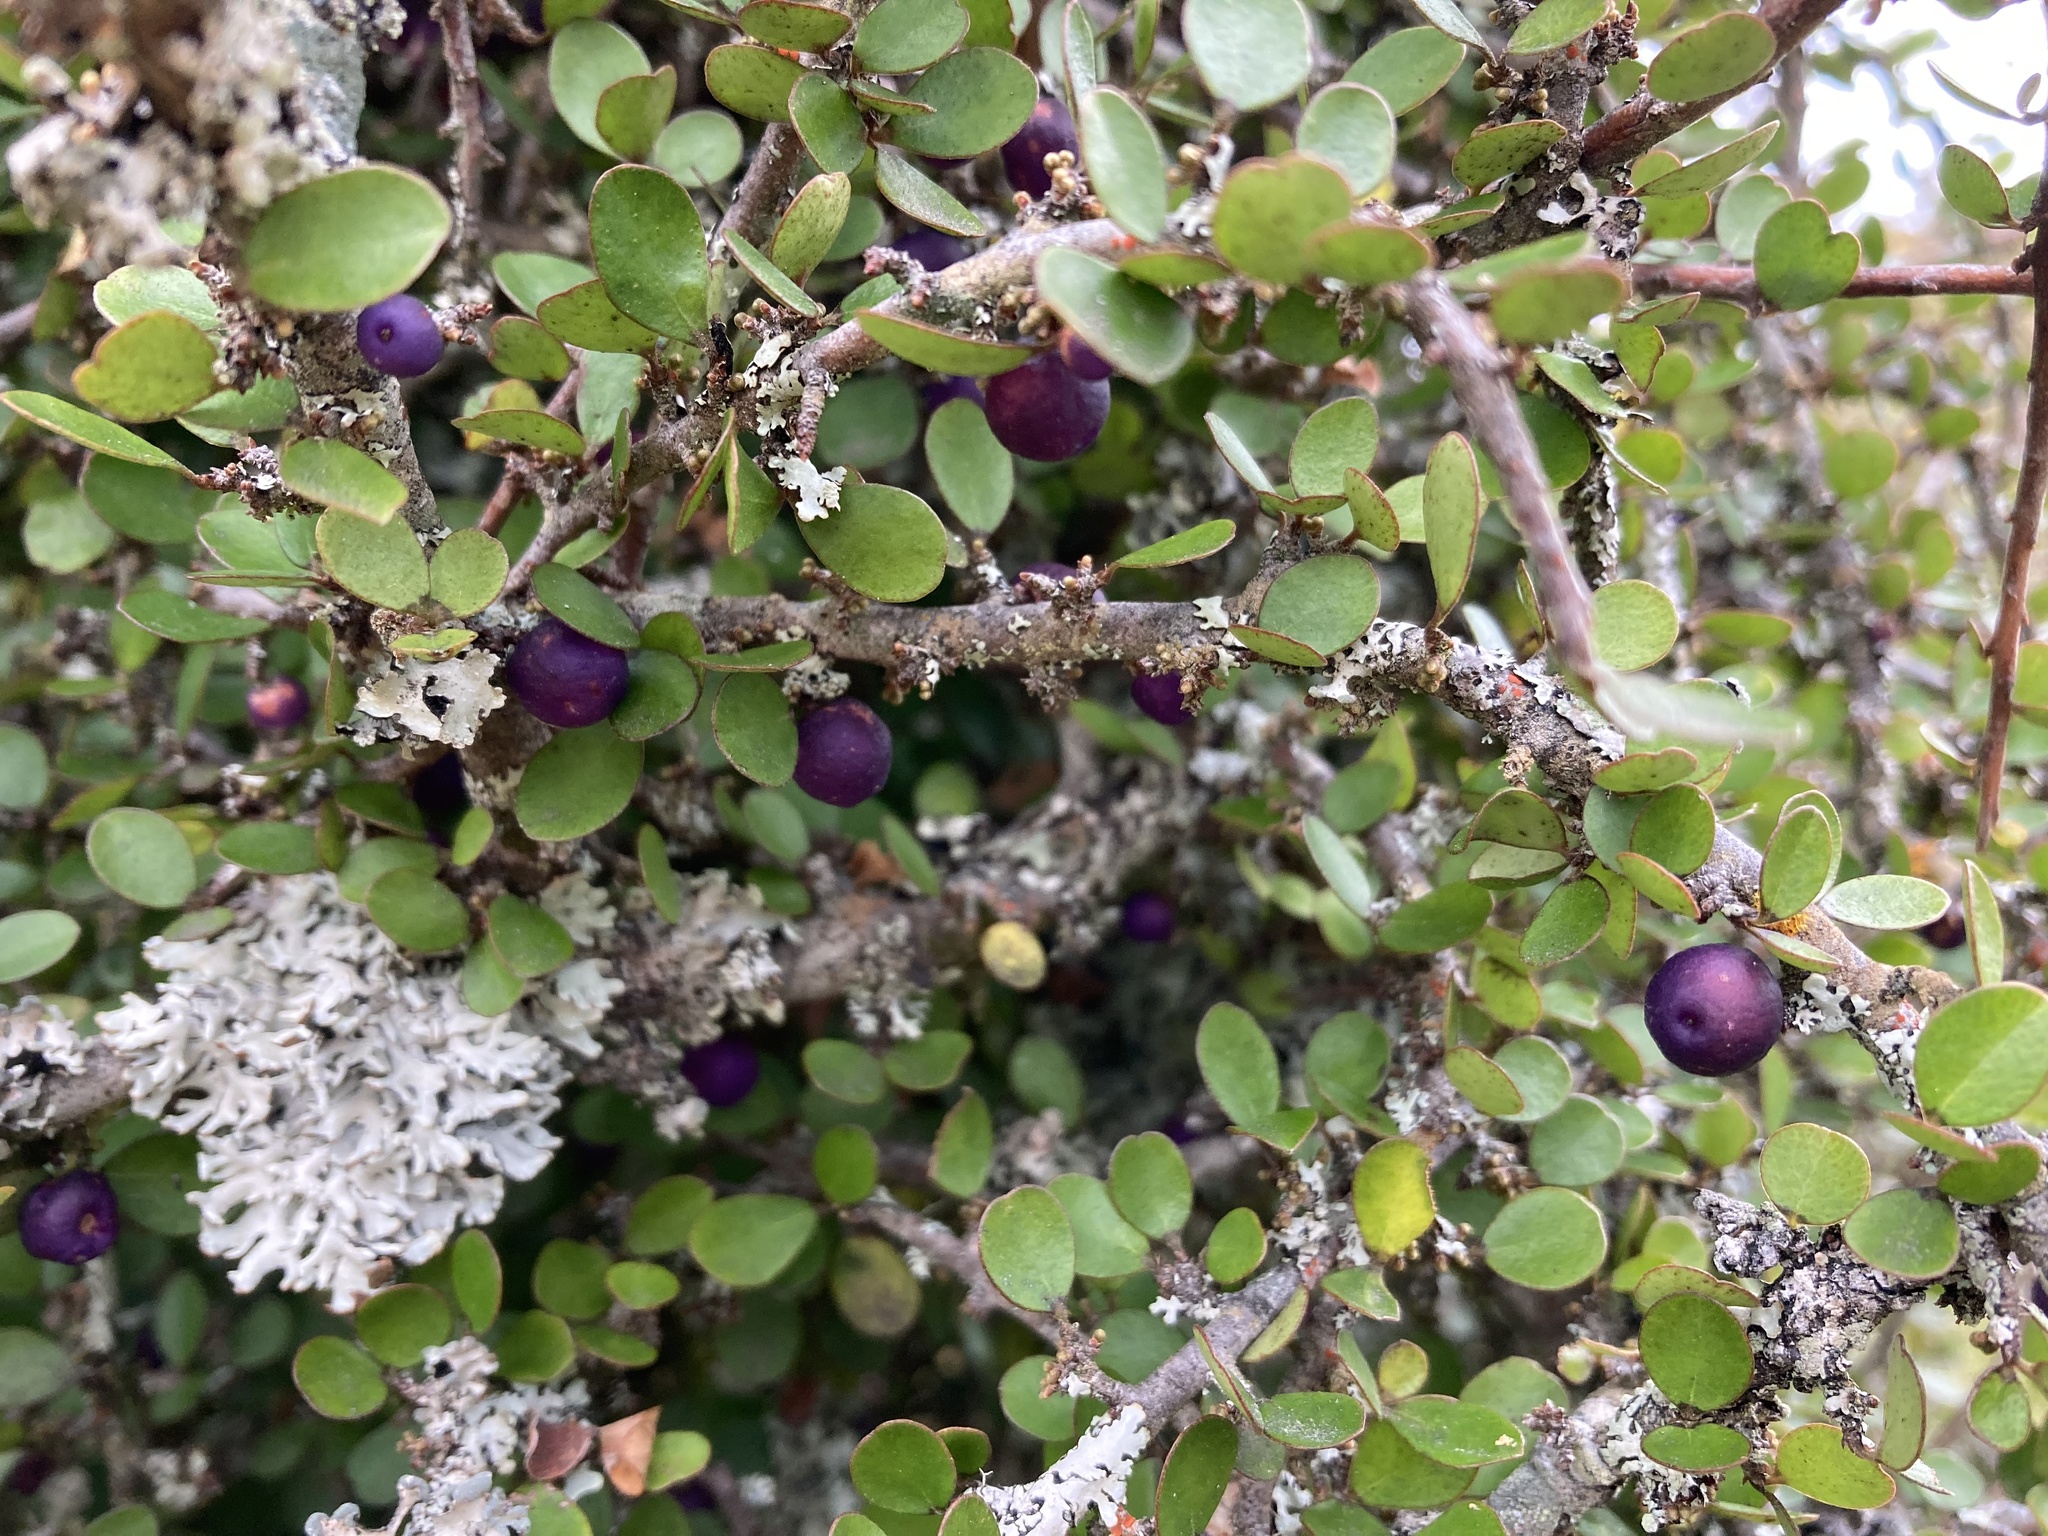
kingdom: Plantae
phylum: Tracheophyta
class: Magnoliopsida
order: Ericales
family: Primulaceae
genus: Myrsine
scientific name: Myrsine divaricata
